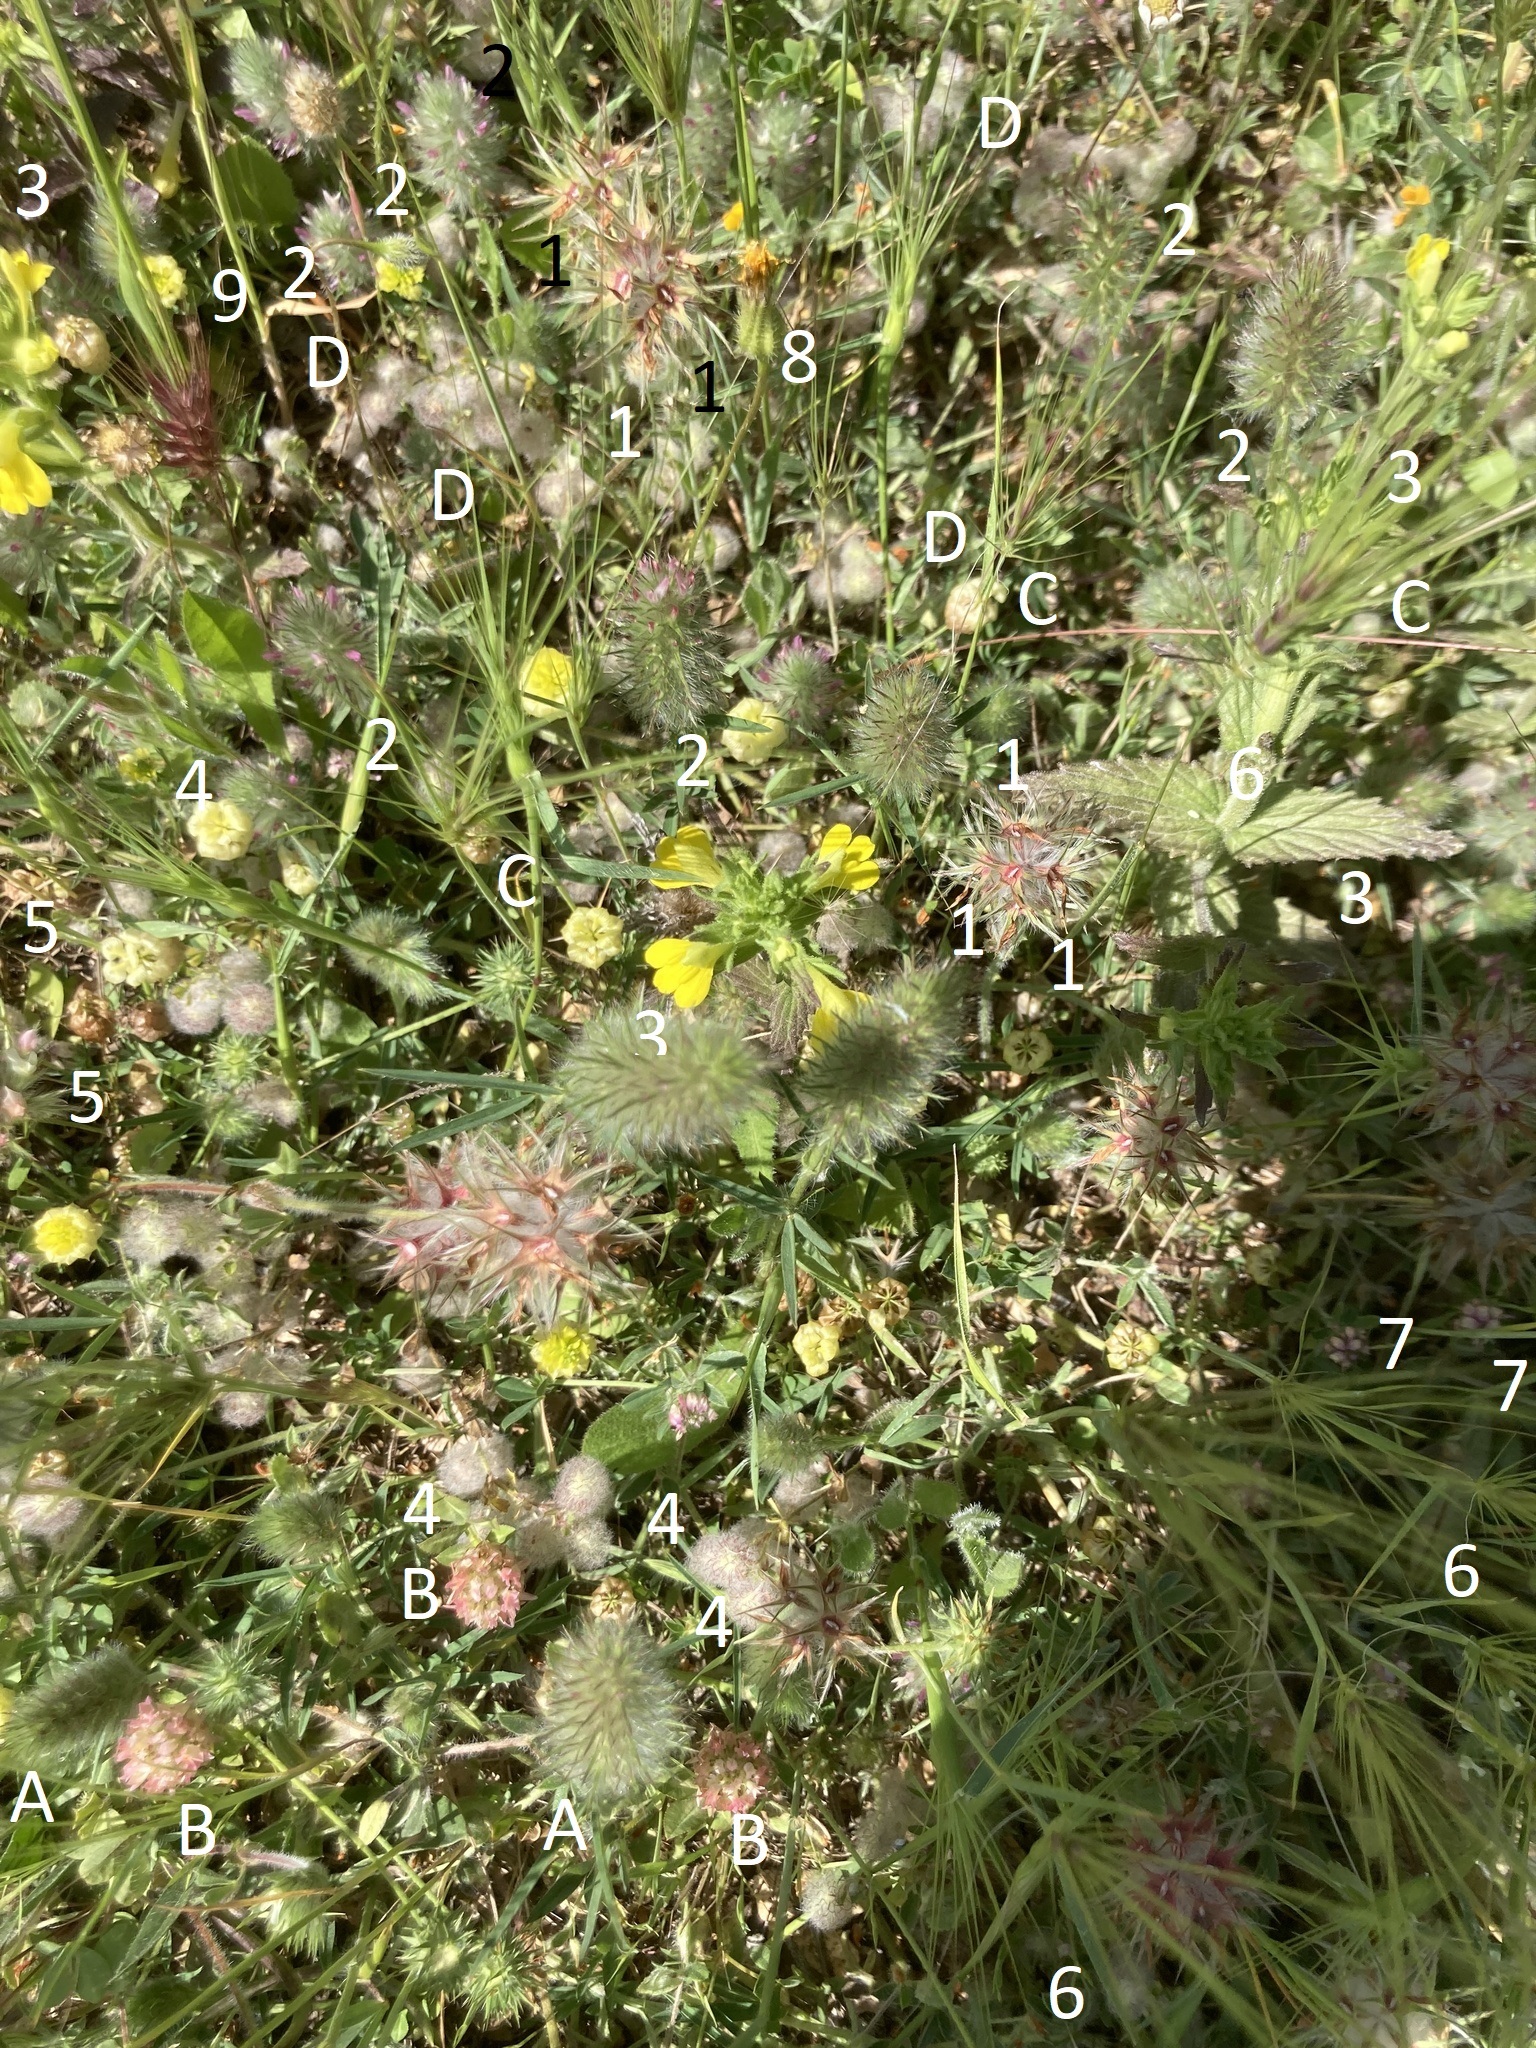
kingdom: Plantae
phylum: Tracheophyta
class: Magnoliopsida
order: Fabales
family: Fabaceae
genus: Trifolium
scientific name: Trifolium stellatum
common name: Starry clover
